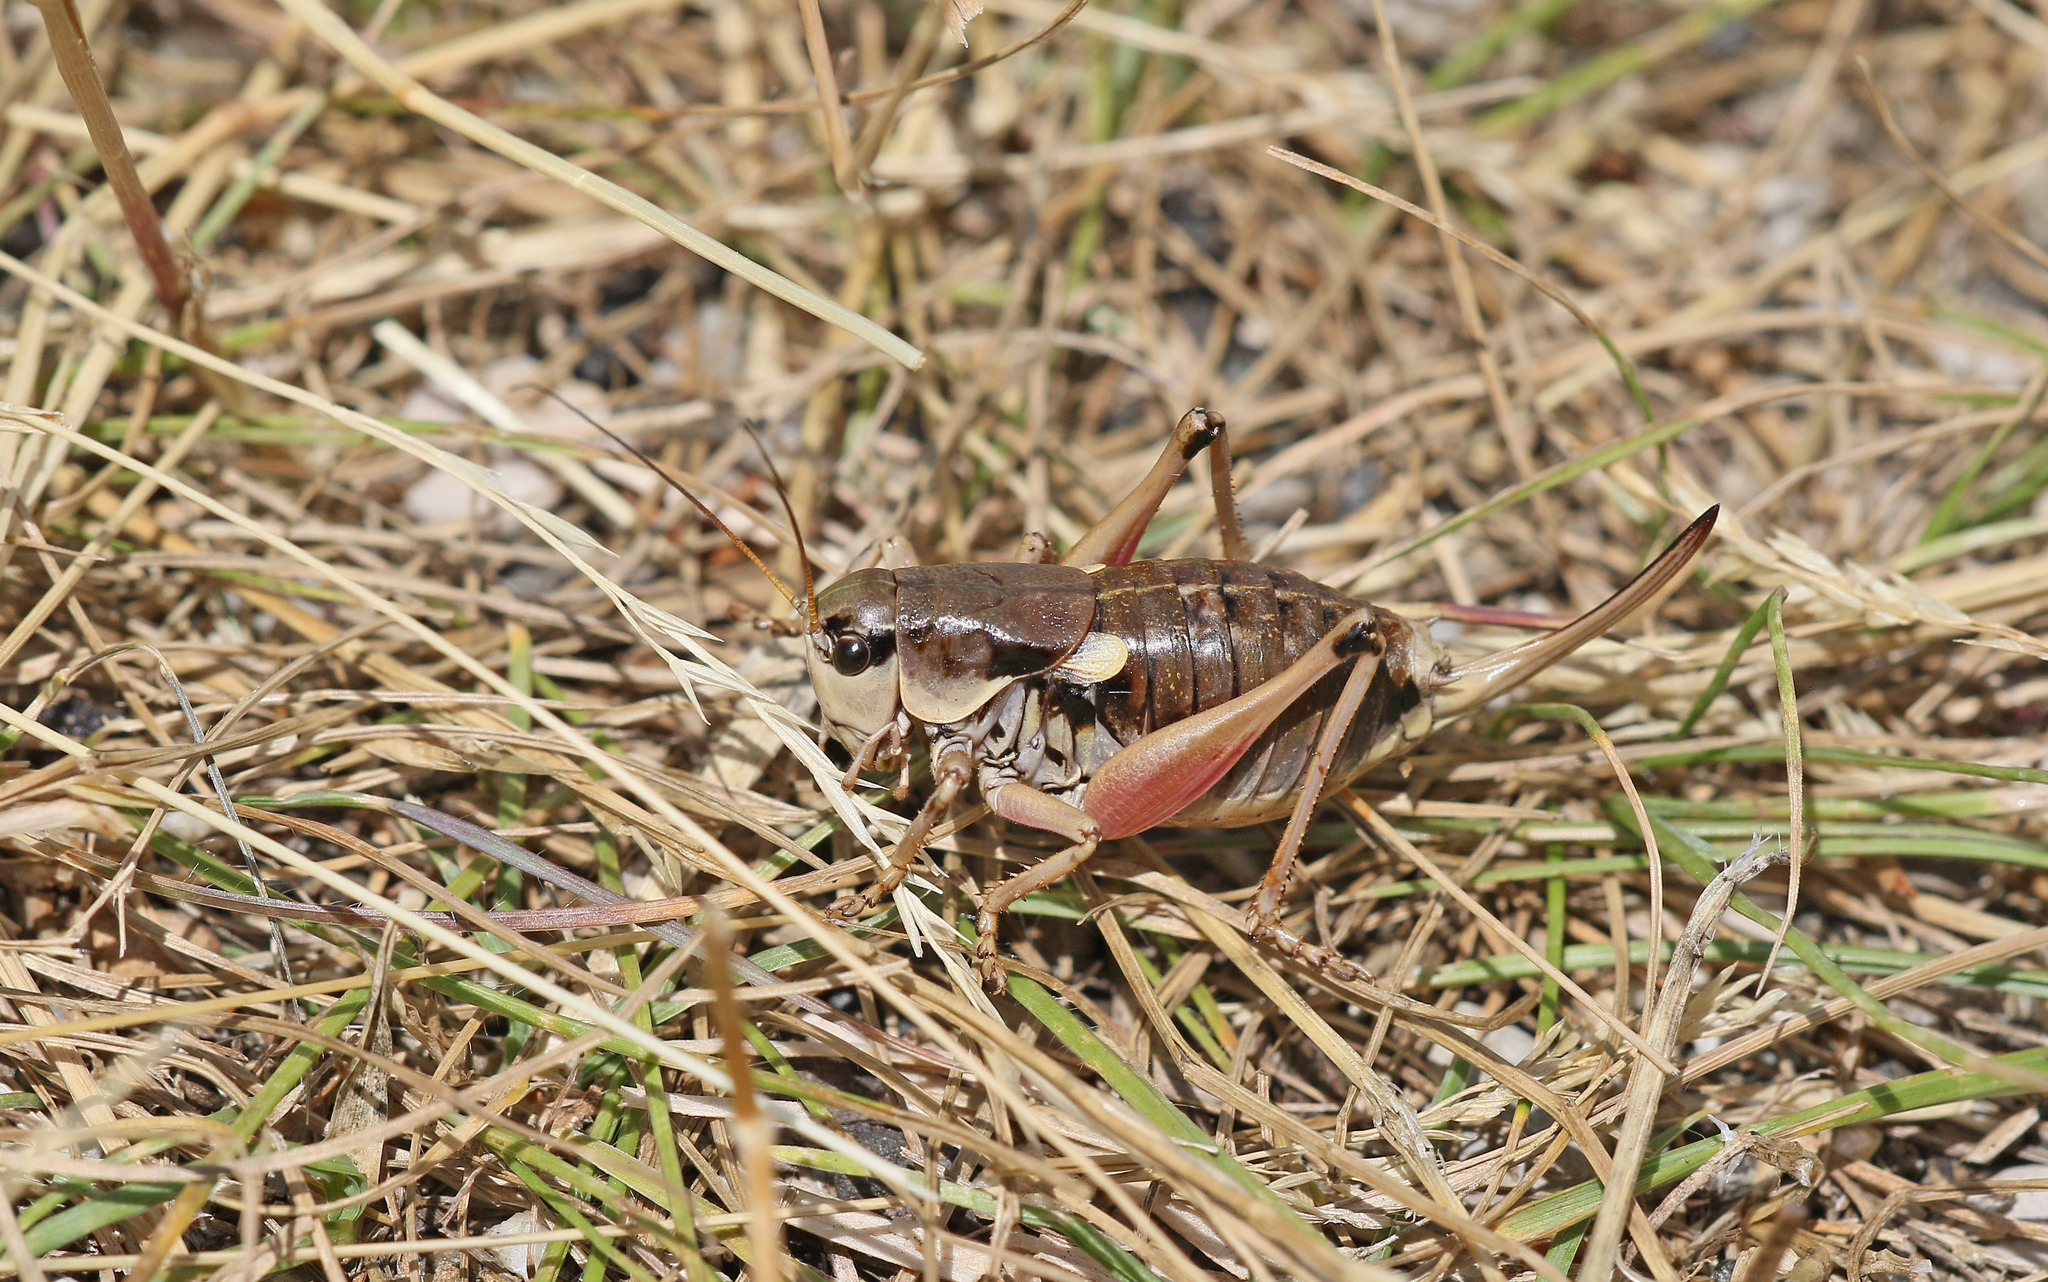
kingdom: Animalia
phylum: Arthropoda
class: Insecta
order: Orthoptera
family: Tettigoniidae
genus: Anonconotus
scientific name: Anonconotus ghilianii
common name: Ghiliani's alpine bush-cricket
